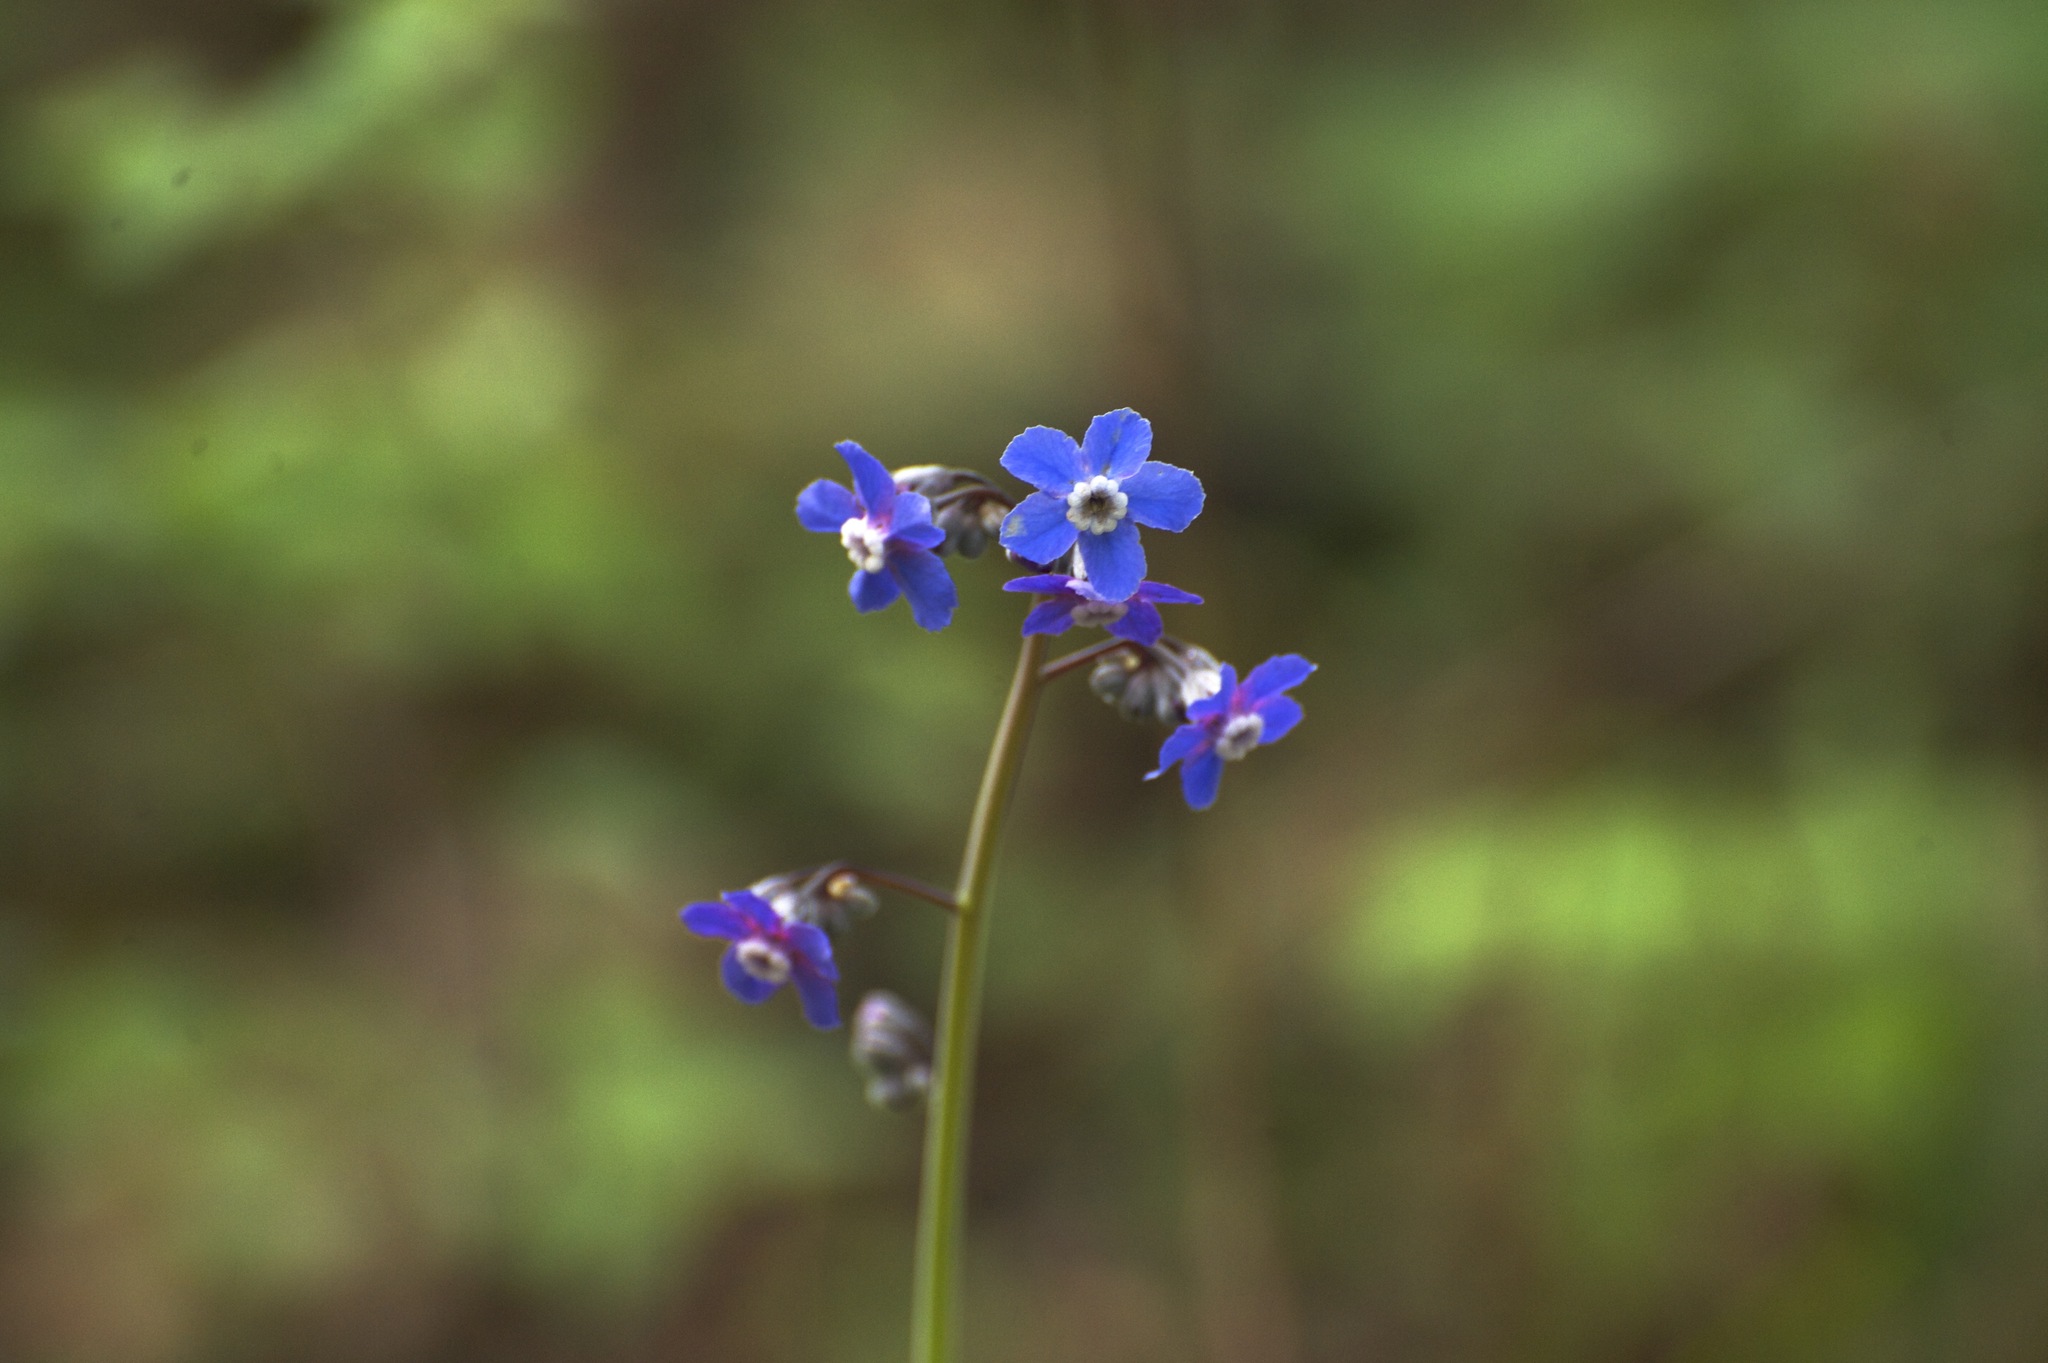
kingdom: Plantae
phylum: Tracheophyta
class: Magnoliopsida
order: Boraginales
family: Boraginaceae
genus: Adelinia
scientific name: Adelinia grande
